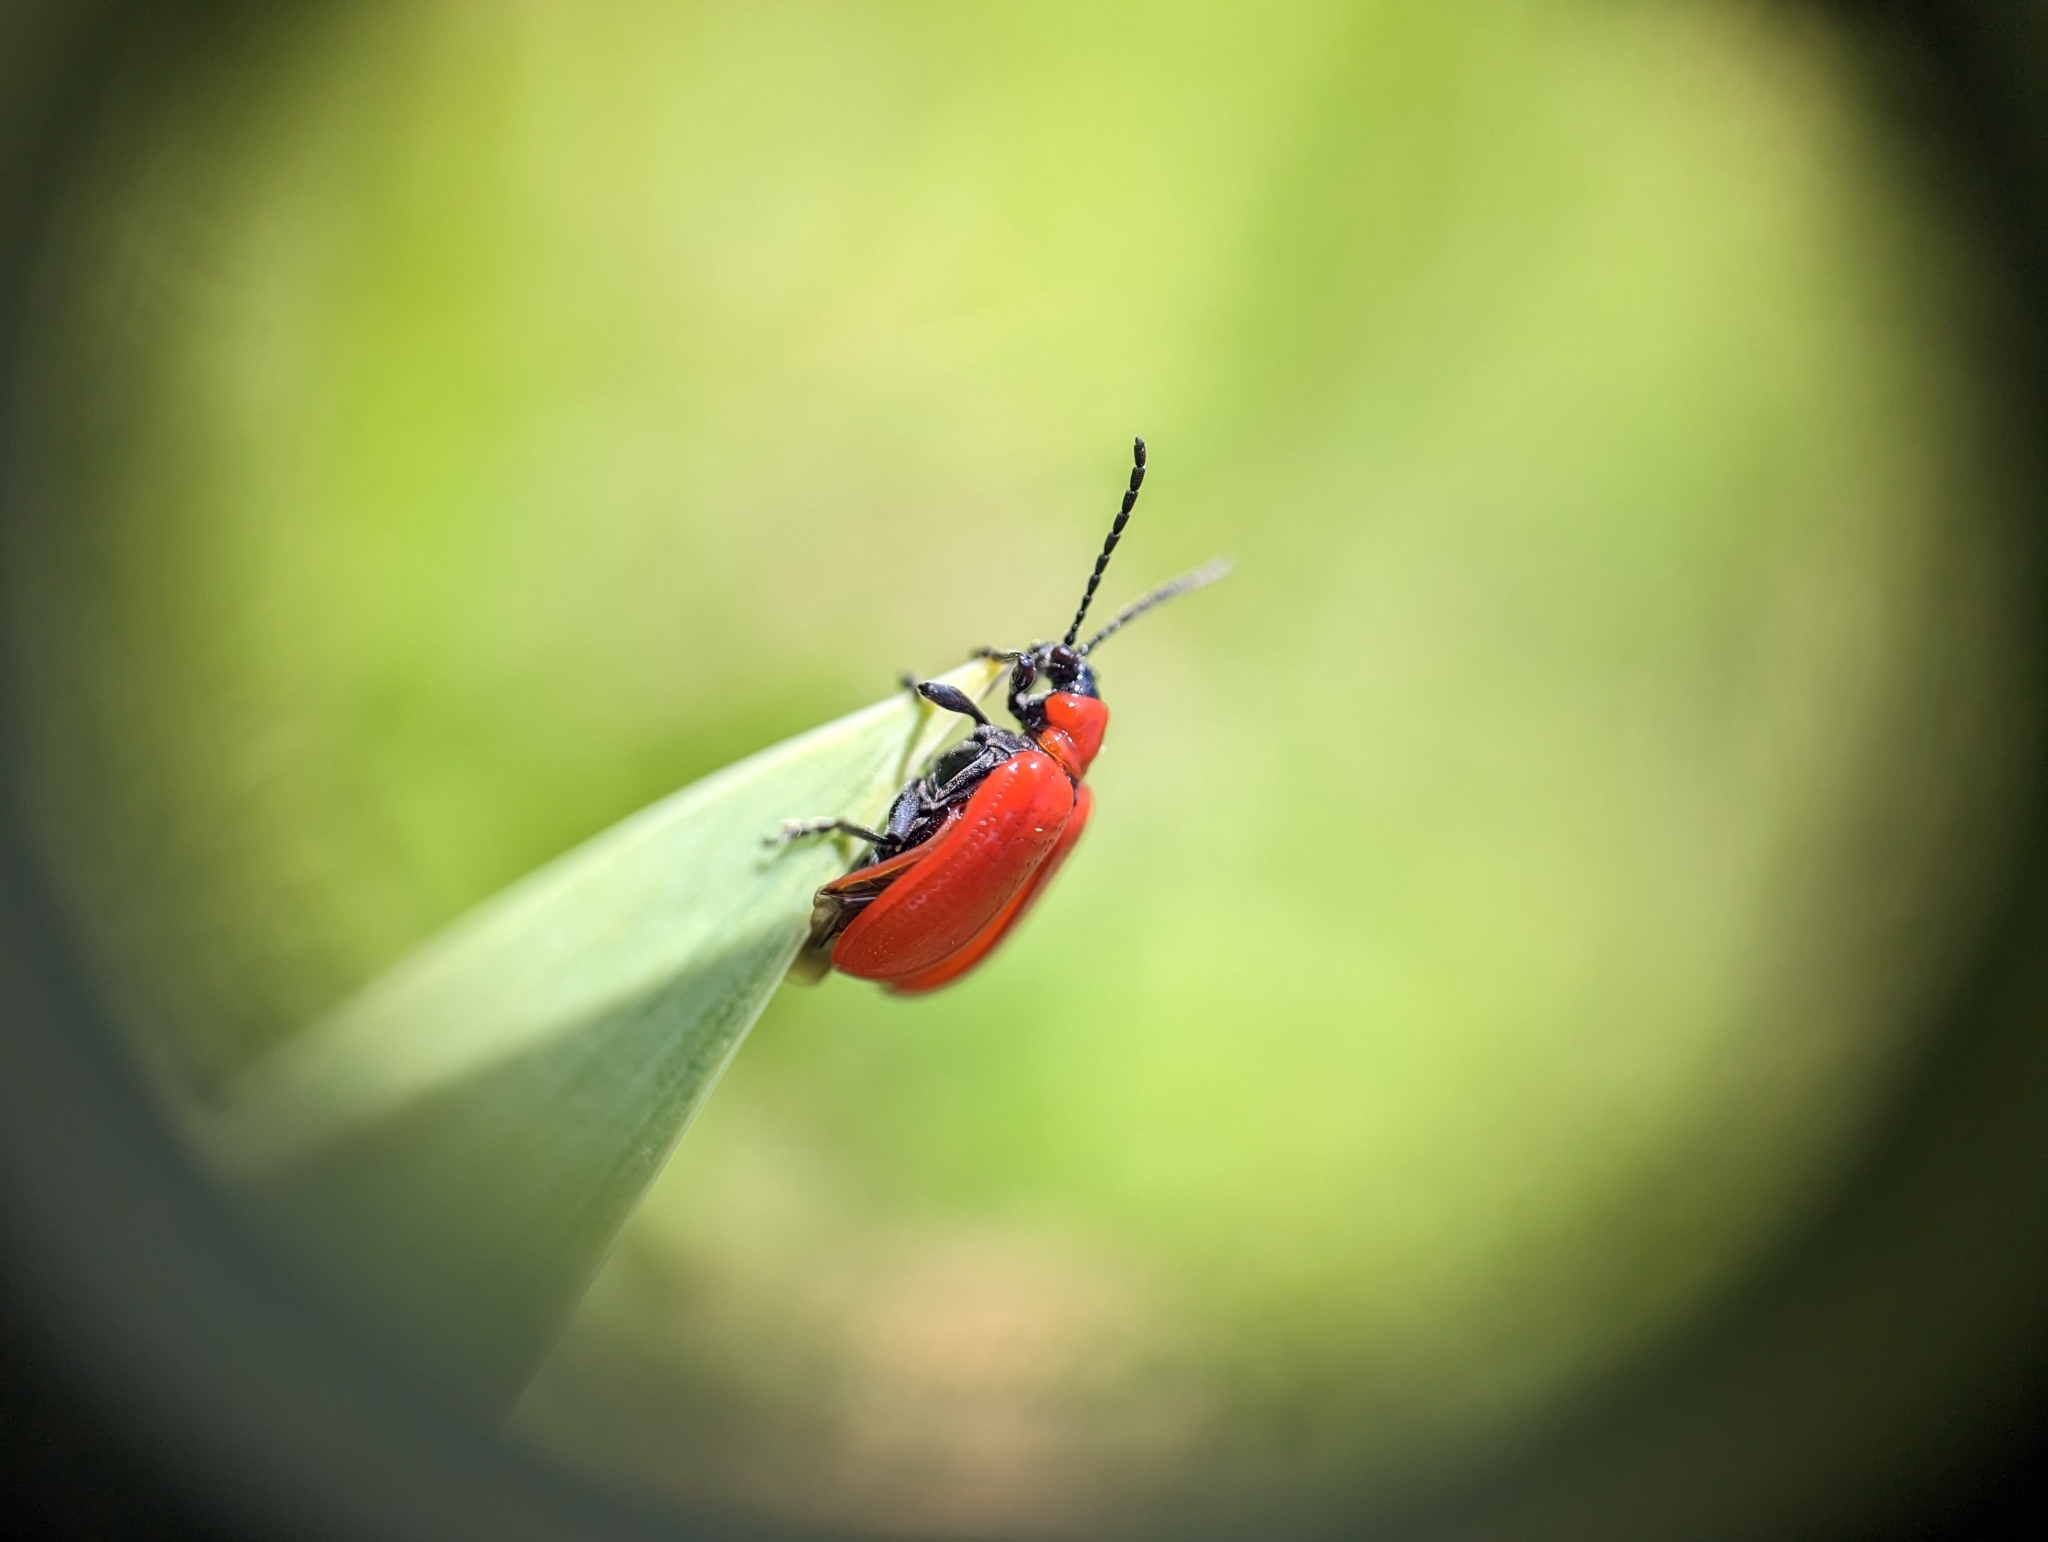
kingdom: Animalia
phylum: Arthropoda
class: Insecta
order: Coleoptera
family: Chrysomelidae
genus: Lilioceris
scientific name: Lilioceris lilii
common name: Lily beetle
